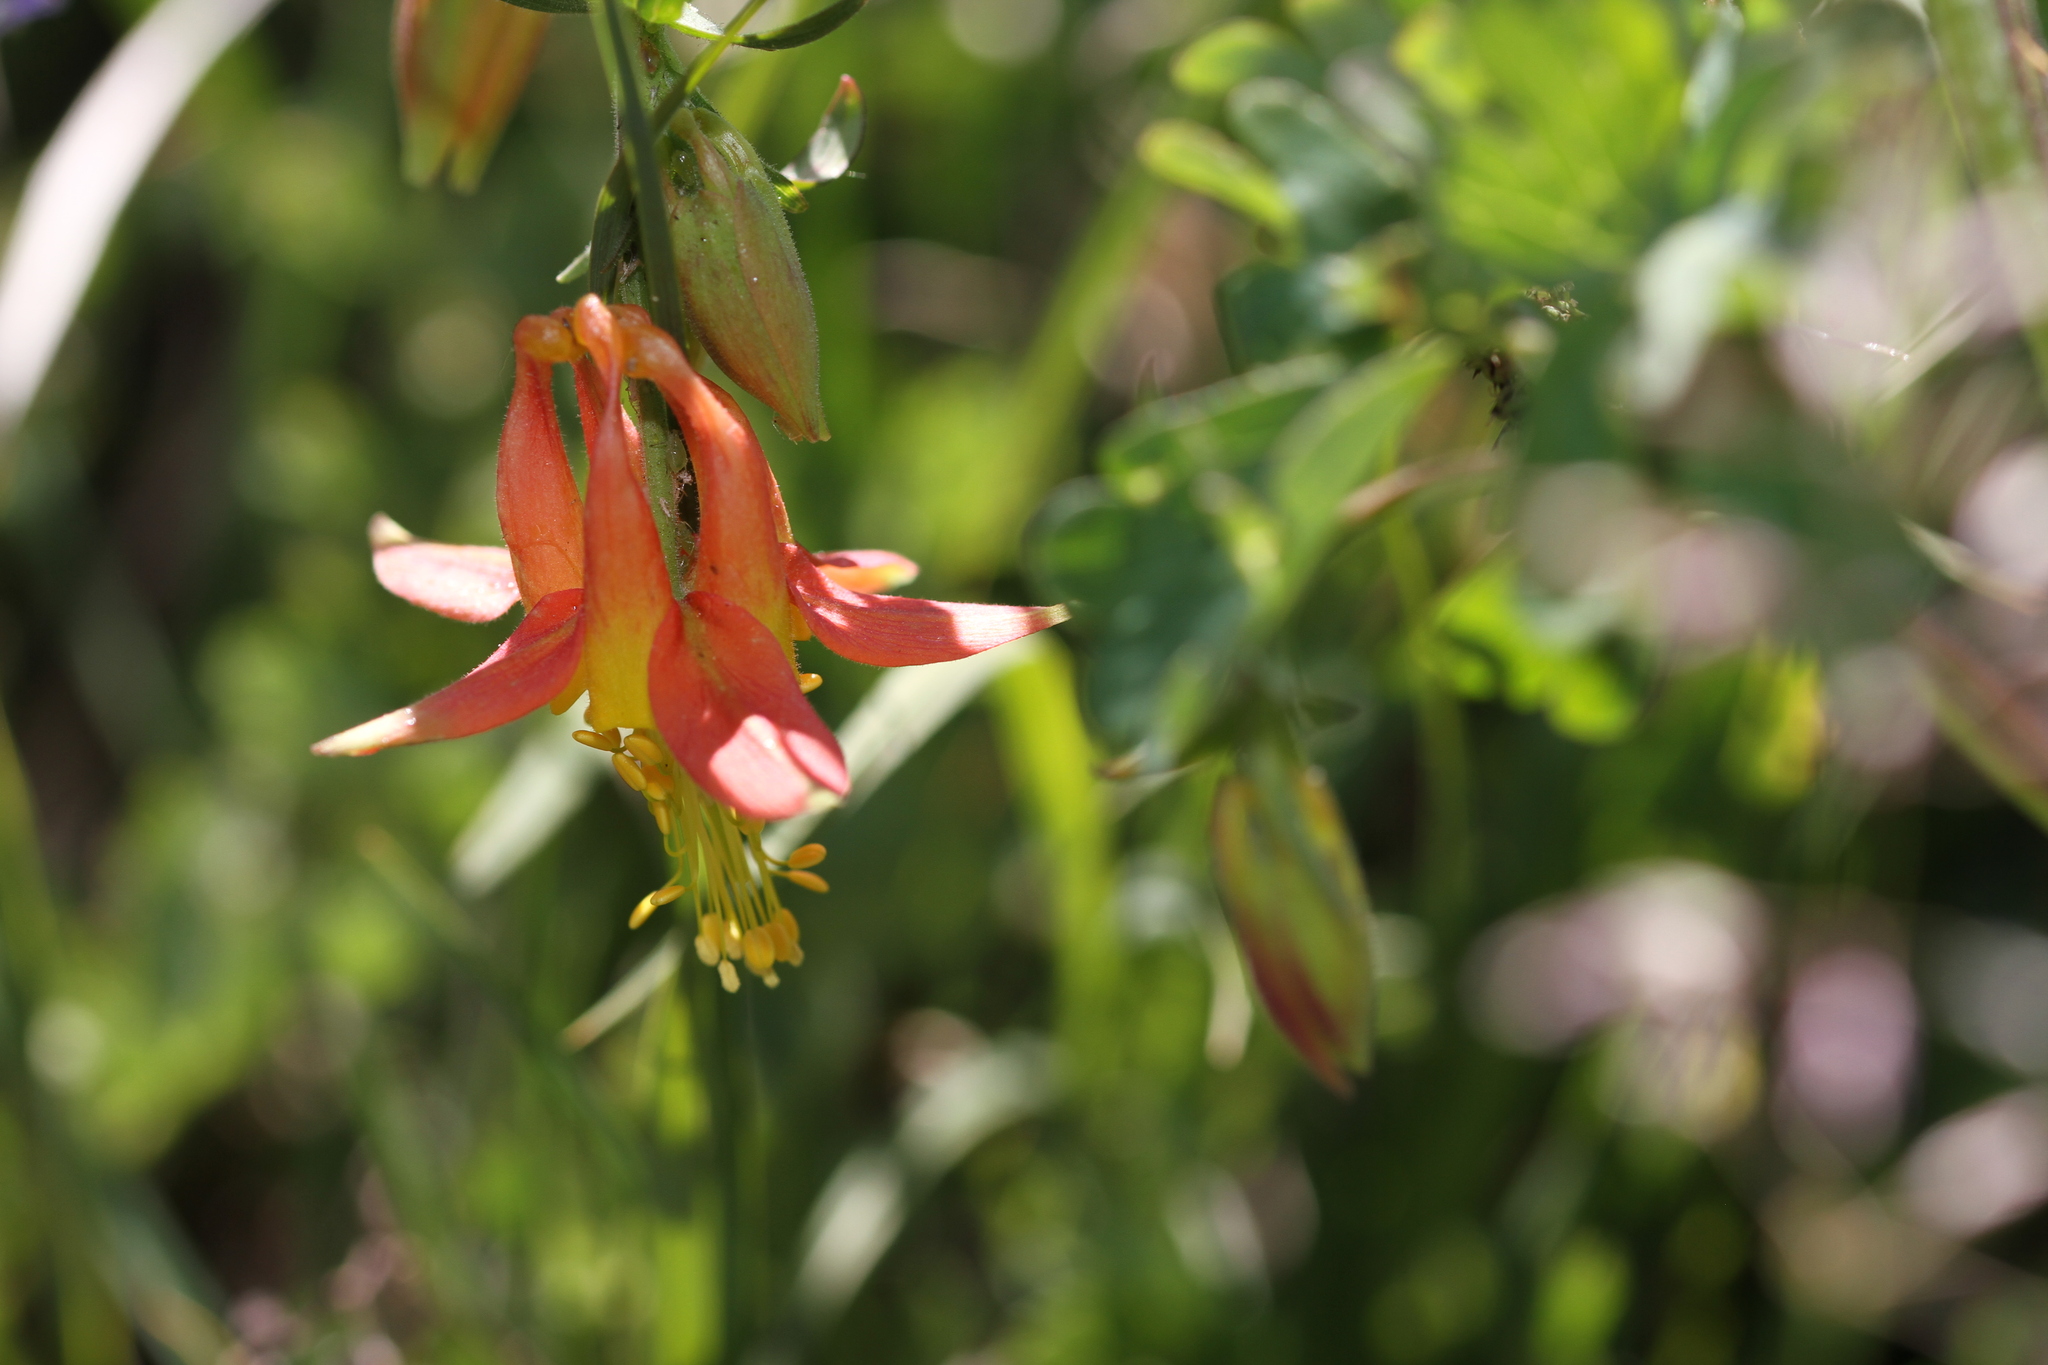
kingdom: Plantae
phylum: Tracheophyta
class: Magnoliopsida
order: Ranunculales
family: Ranunculaceae
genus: Aquilegia
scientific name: Aquilegia formosa
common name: Sitka columbine
